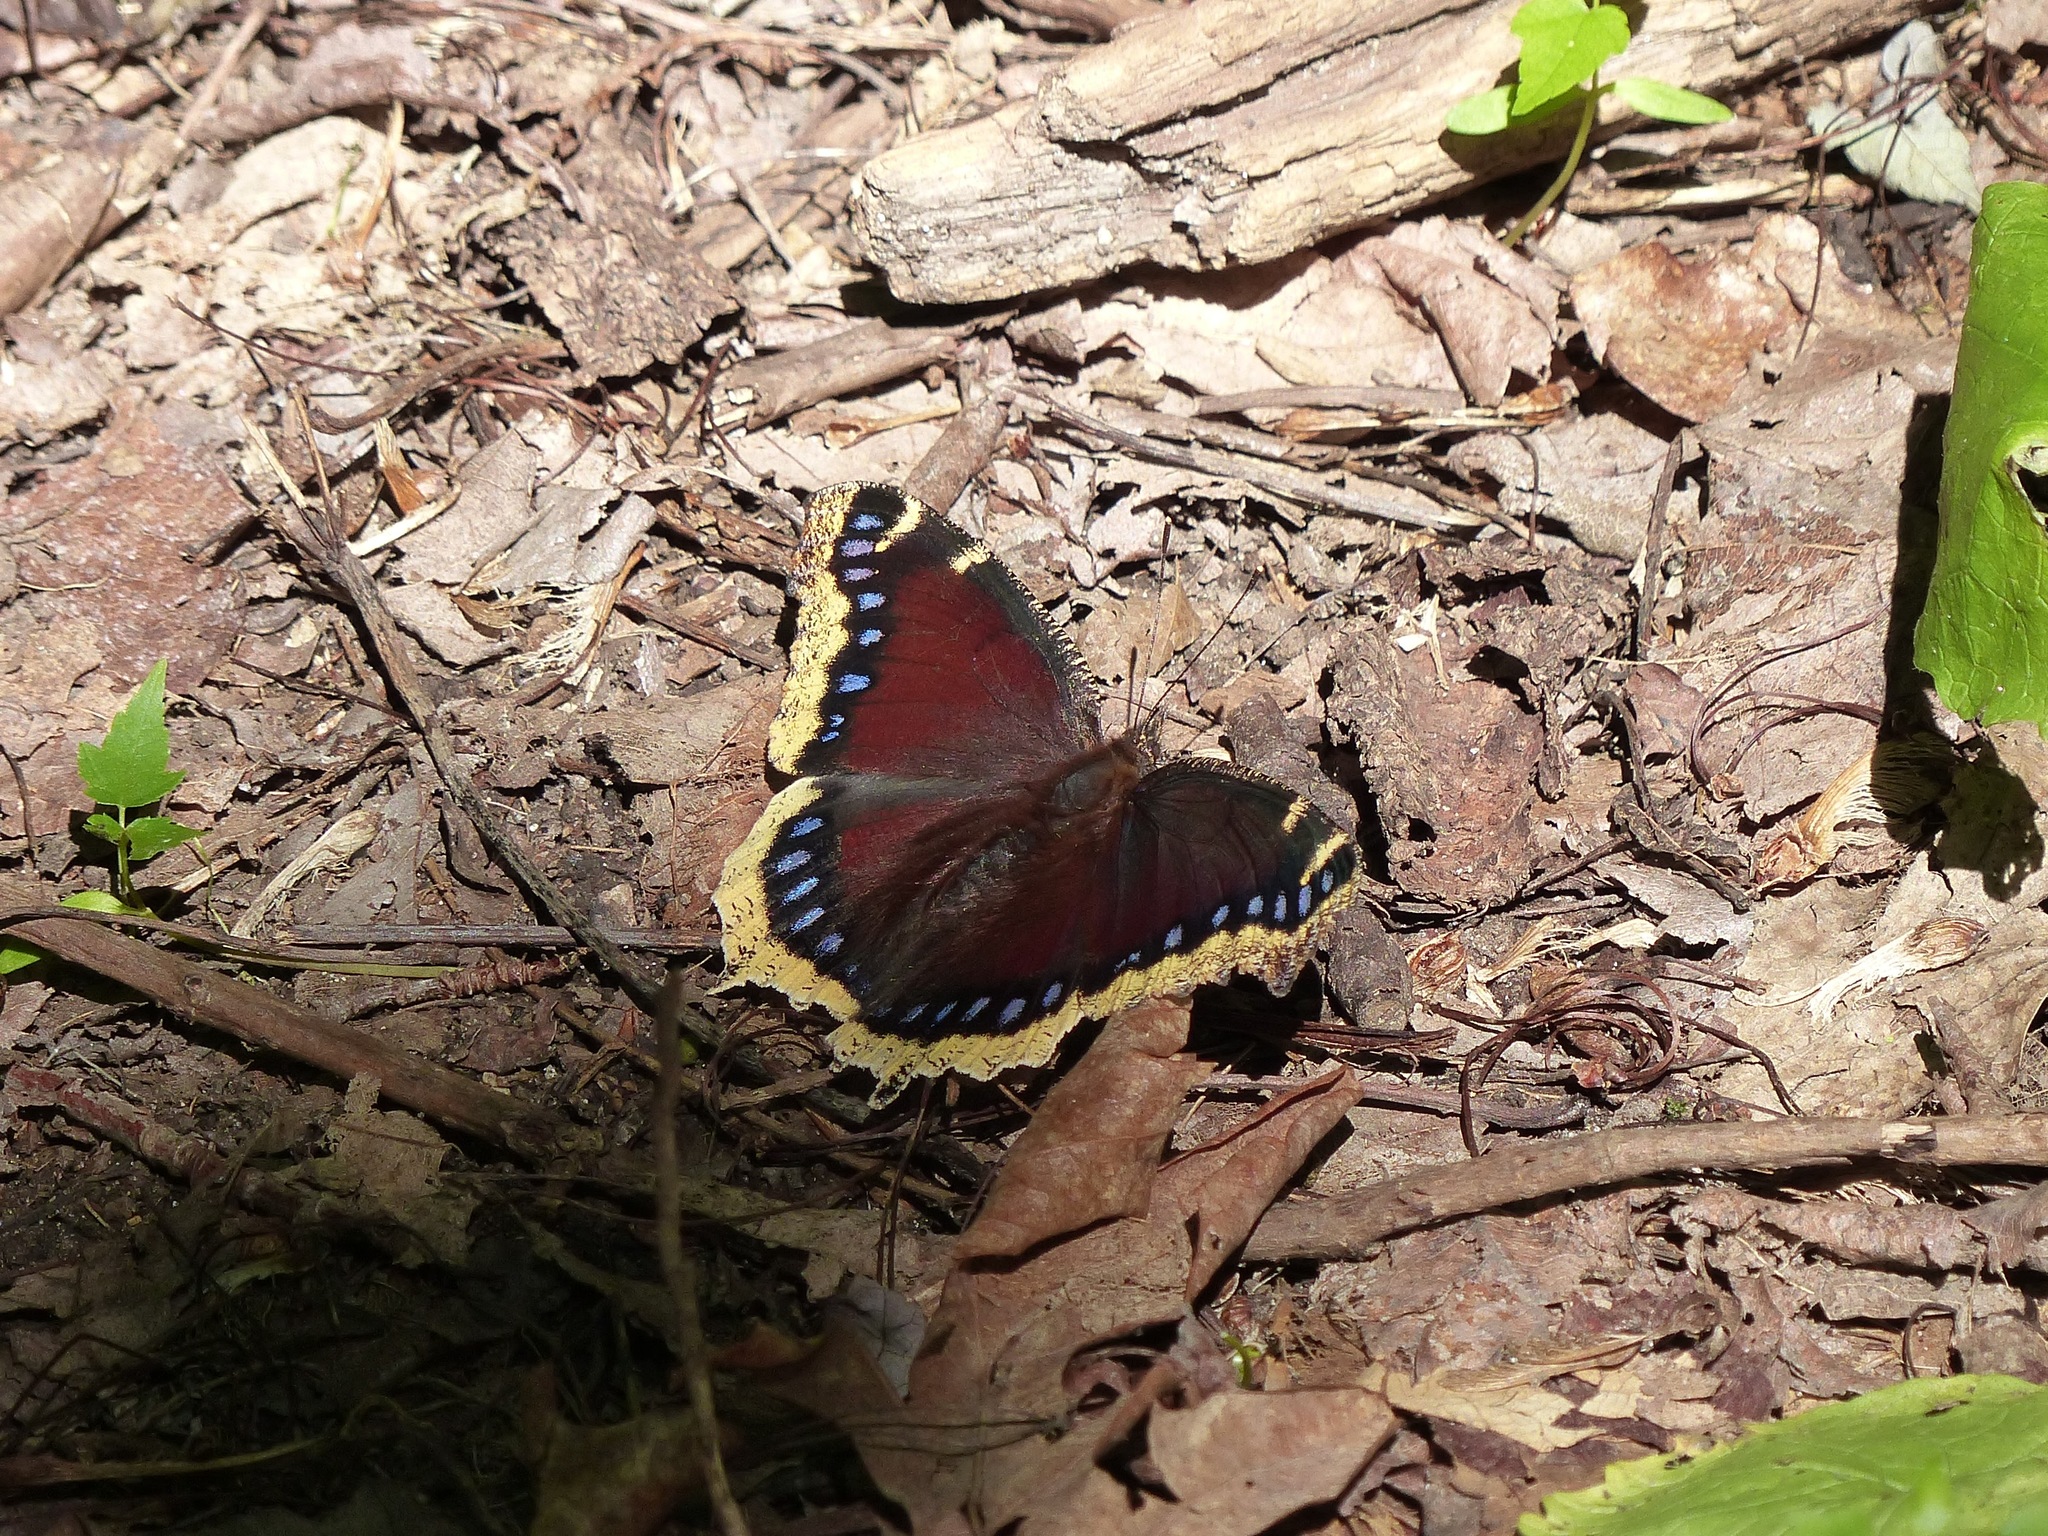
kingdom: Animalia
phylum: Arthropoda
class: Insecta
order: Lepidoptera
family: Nymphalidae
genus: Nymphalis
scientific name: Nymphalis antiopa
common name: Camberwell beauty
